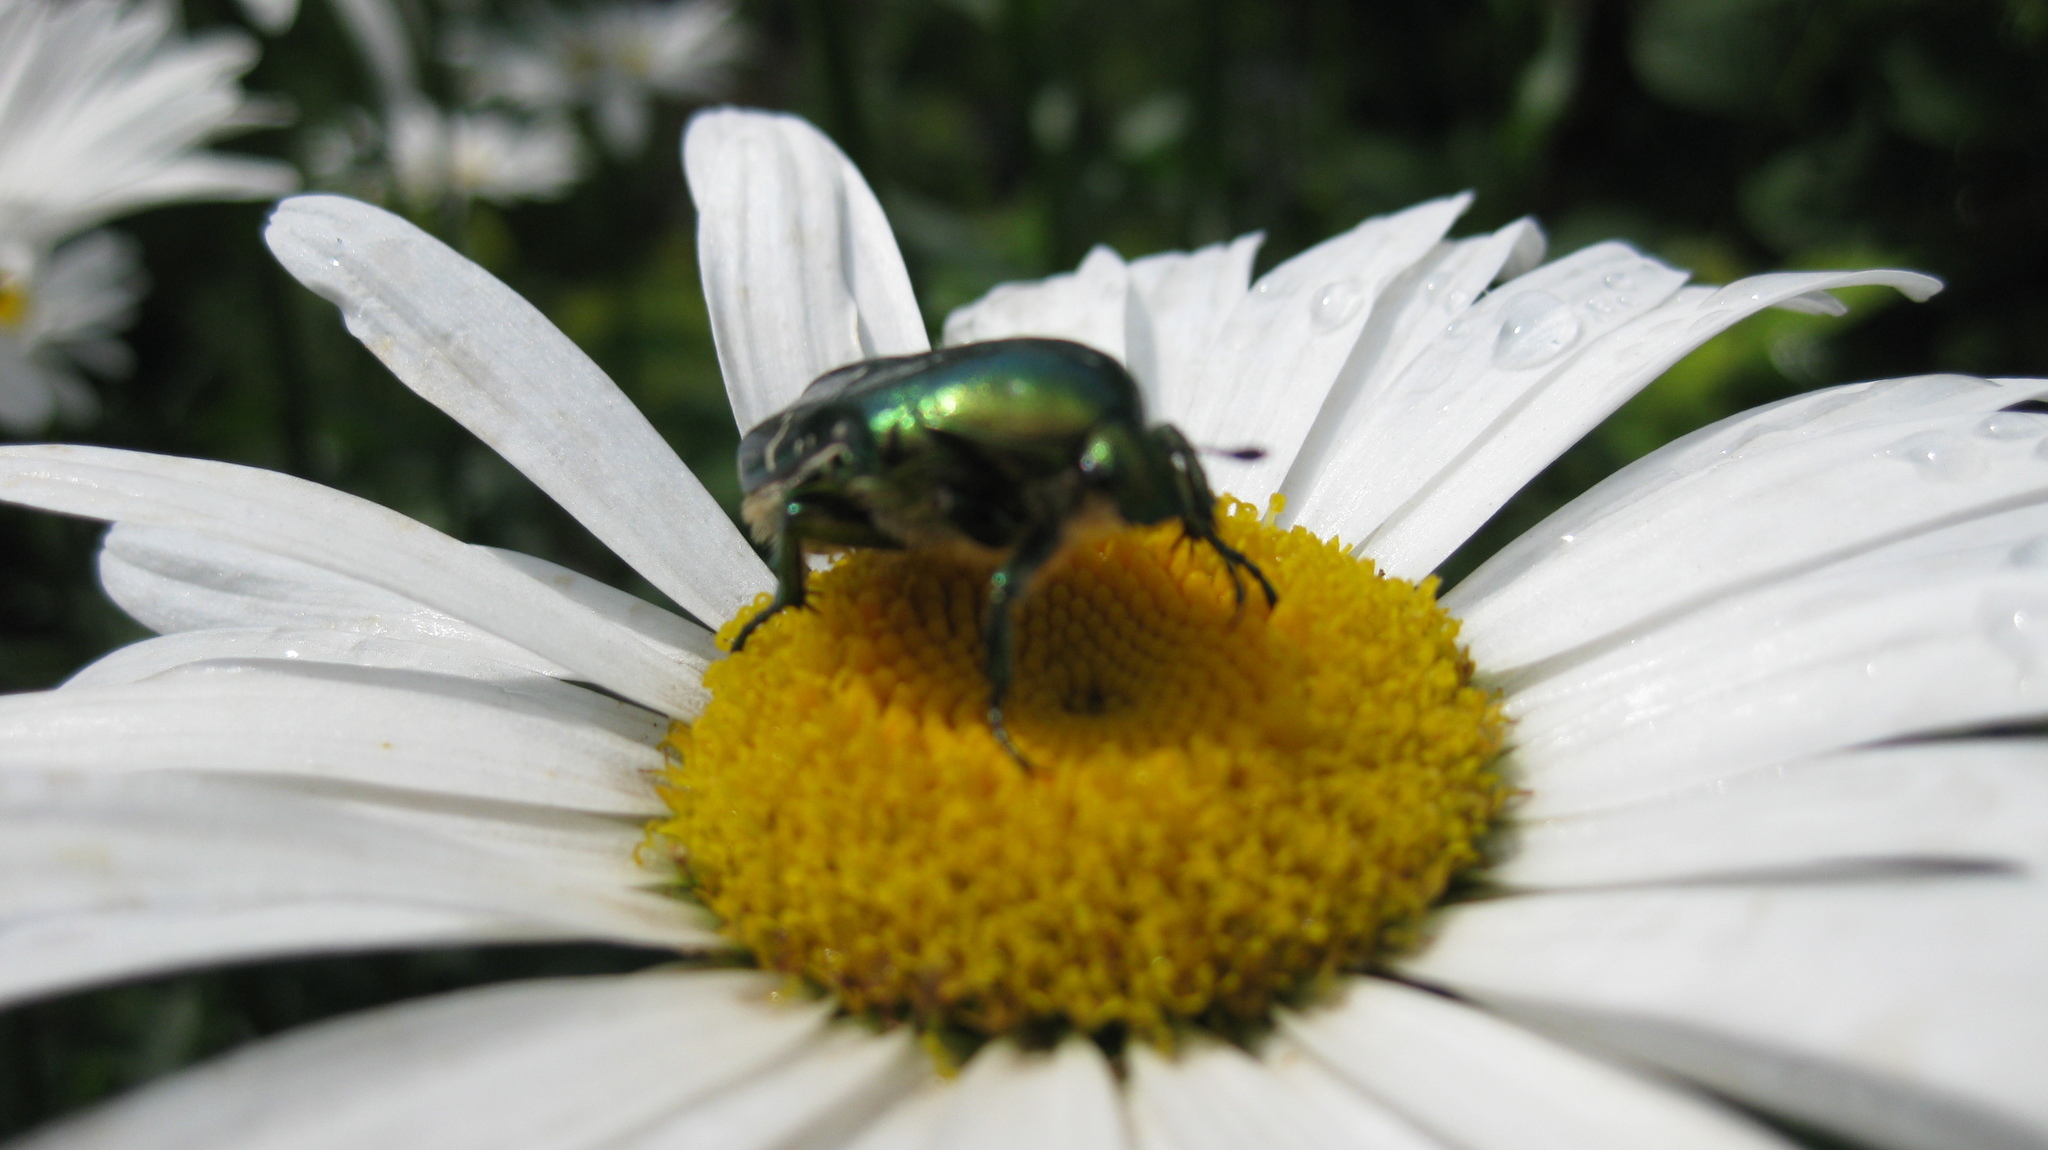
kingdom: Animalia
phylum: Arthropoda
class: Insecta
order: Coleoptera
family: Scarabaeidae
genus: Cetonia
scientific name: Cetonia aurata
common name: Rose chafer
